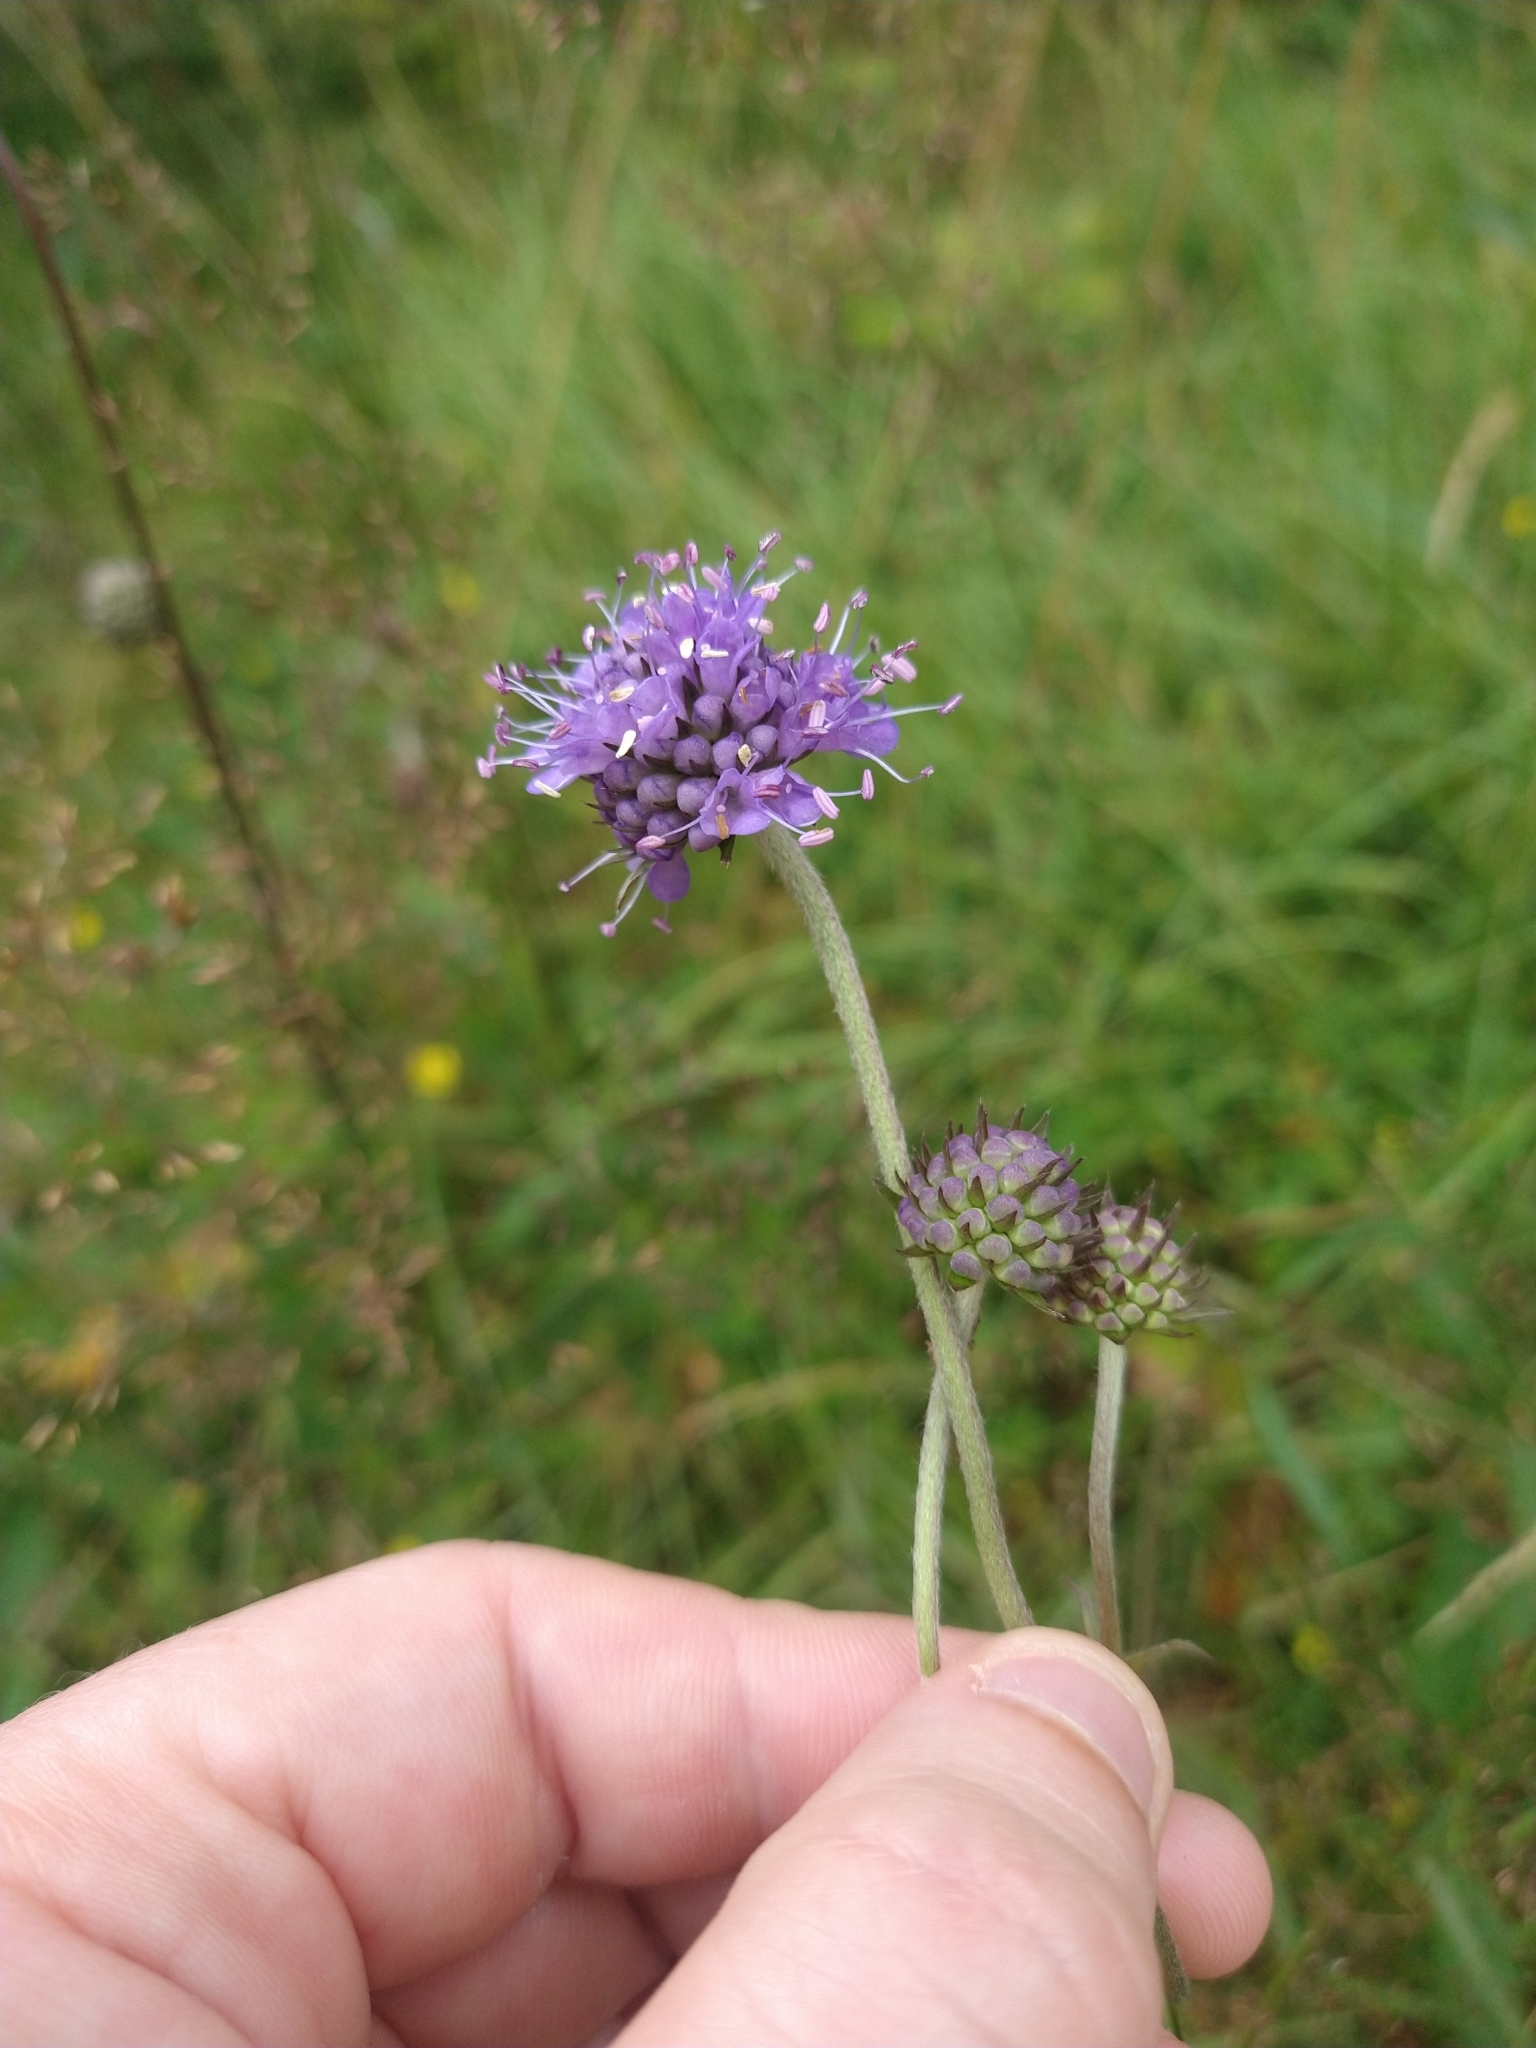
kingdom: Plantae
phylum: Tracheophyta
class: Magnoliopsida
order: Dipsacales
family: Caprifoliaceae
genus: Succisa
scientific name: Succisa pratensis
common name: Devil's-bit
